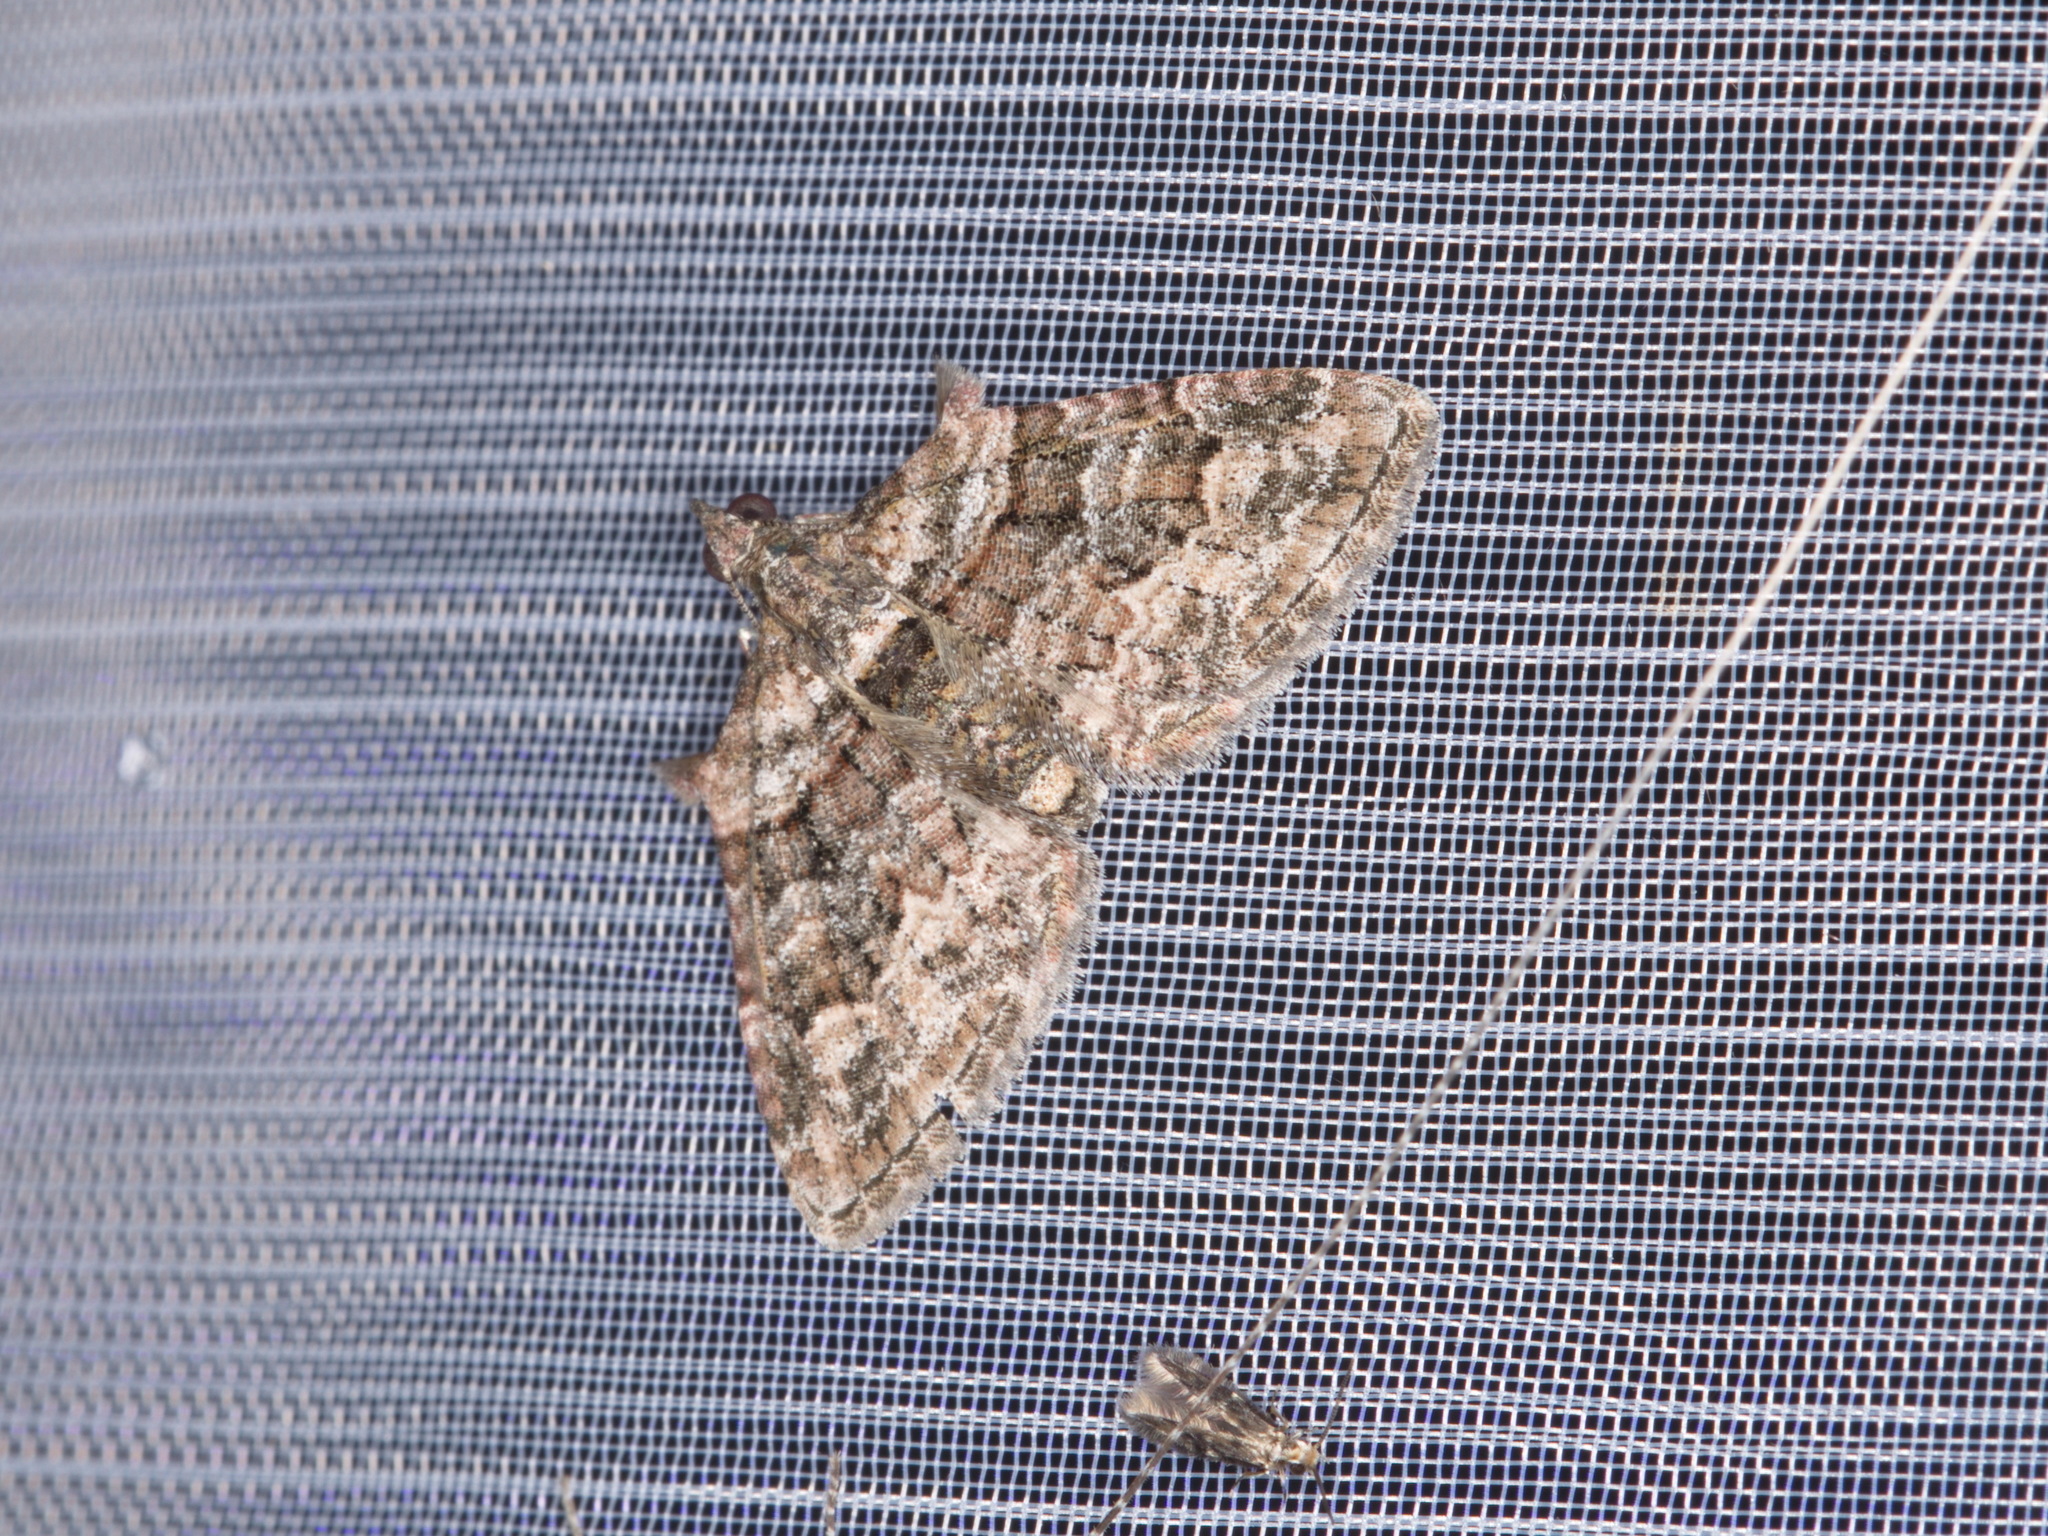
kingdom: Animalia
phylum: Arthropoda
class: Insecta
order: Lepidoptera
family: Geometridae
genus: Phrissogonus
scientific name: Phrissogonus laticostata
